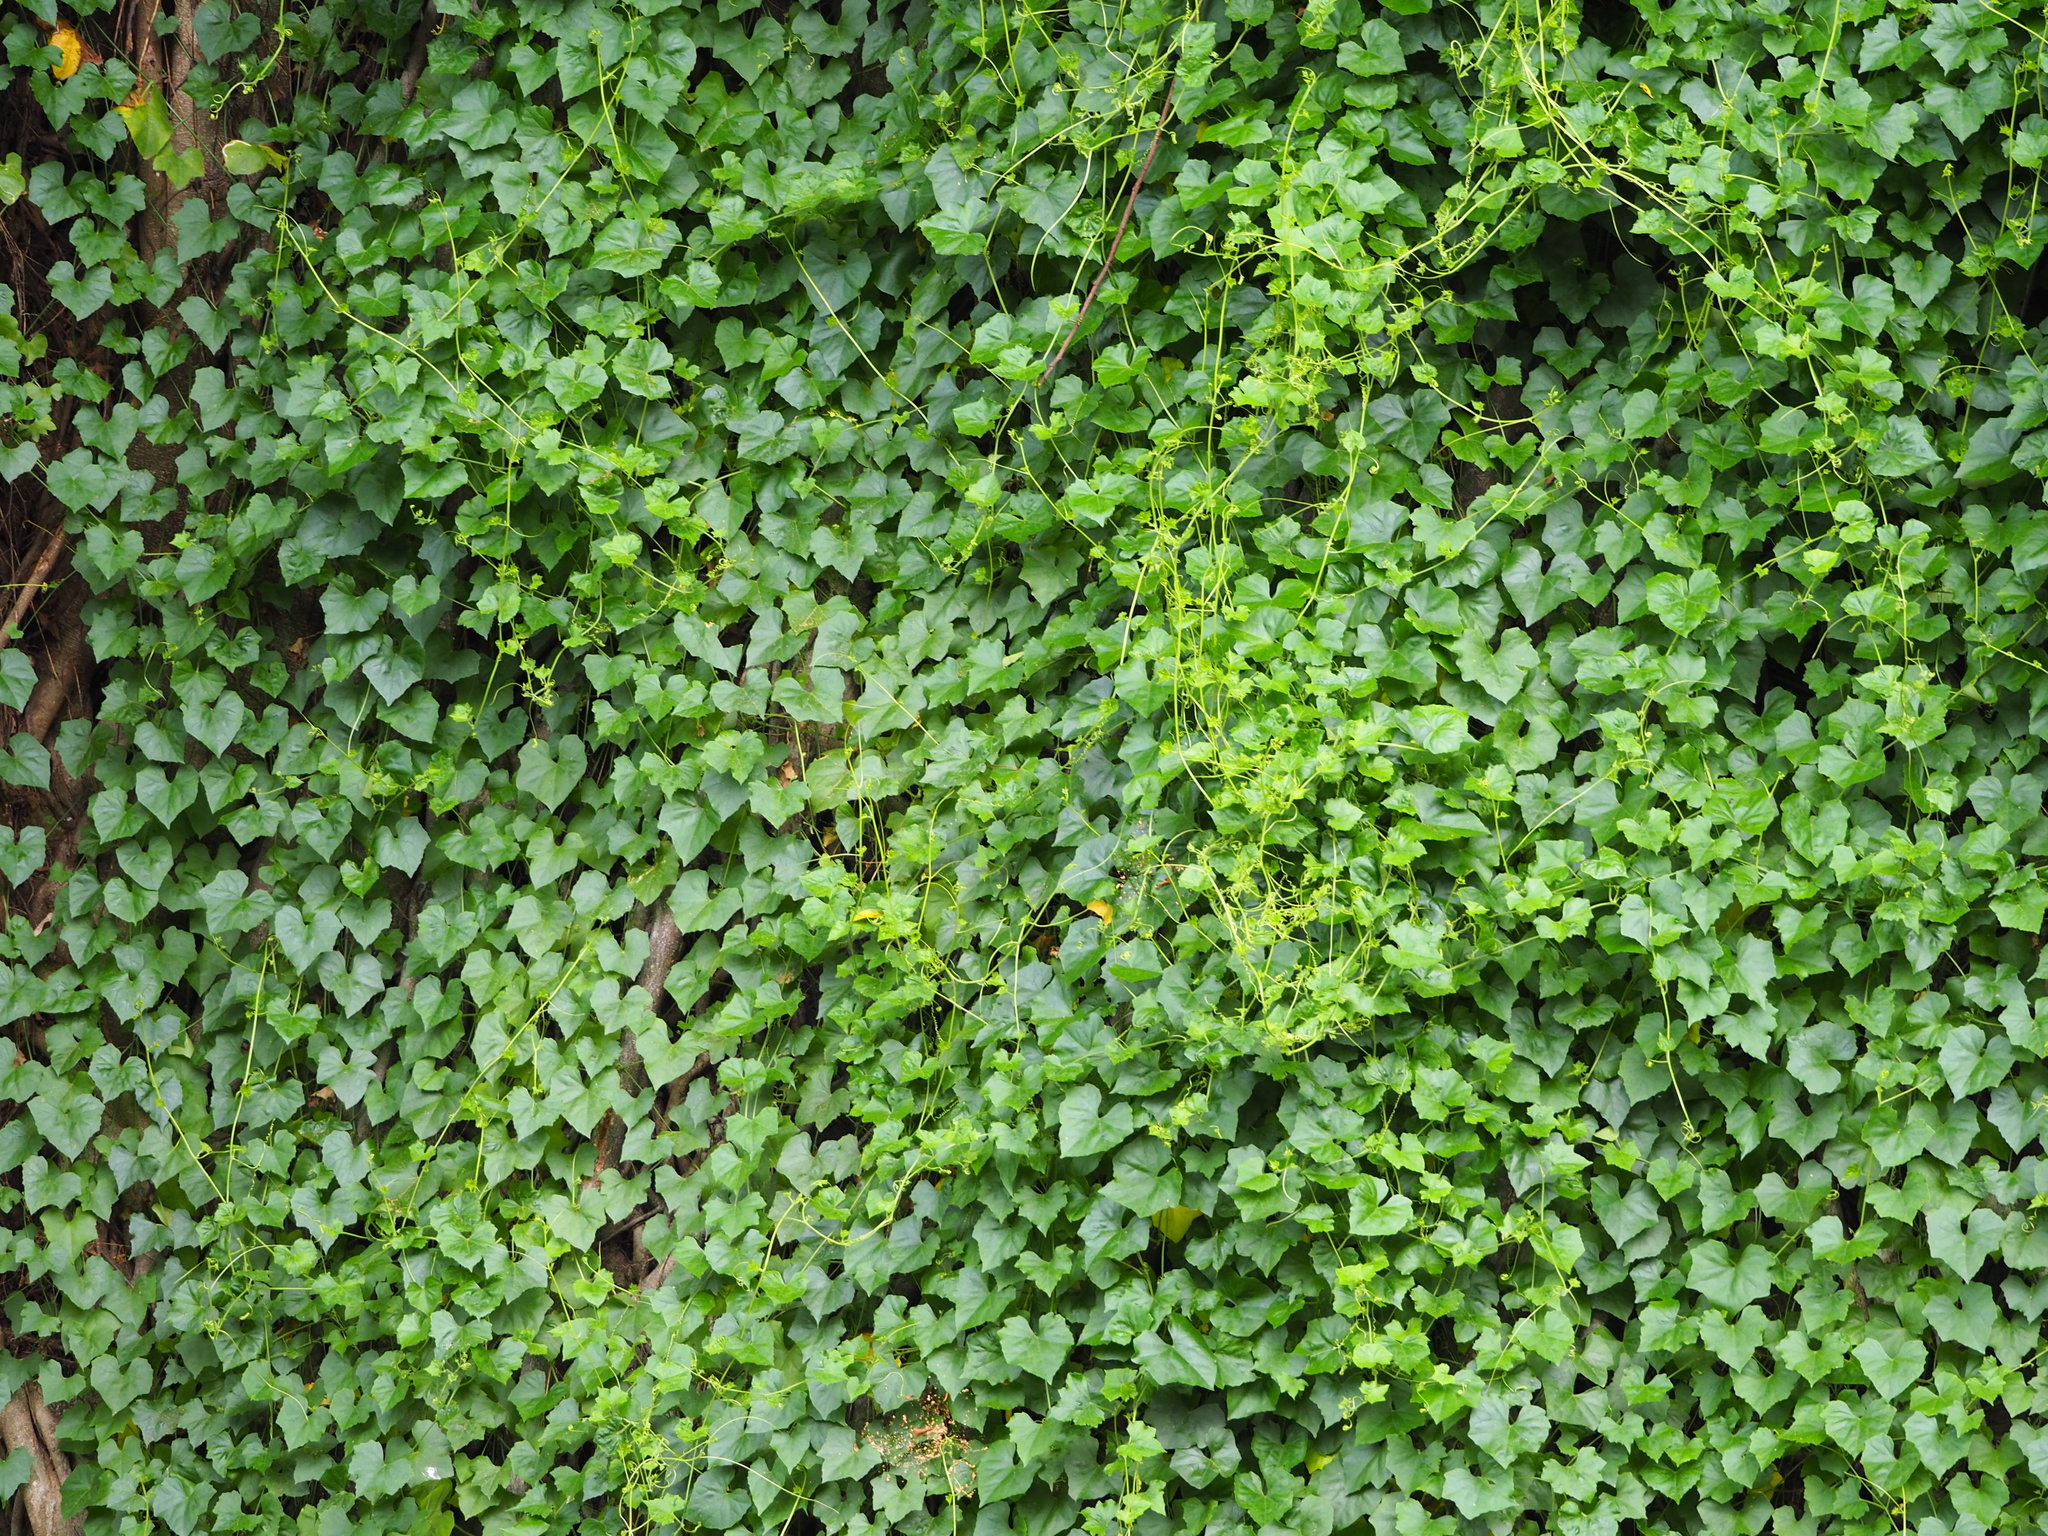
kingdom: Plantae
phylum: Tracheophyta
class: Magnoliopsida
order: Cucurbitales
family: Cucurbitaceae
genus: Melothria
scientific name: Melothria pendula
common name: Creeping-cucumber
